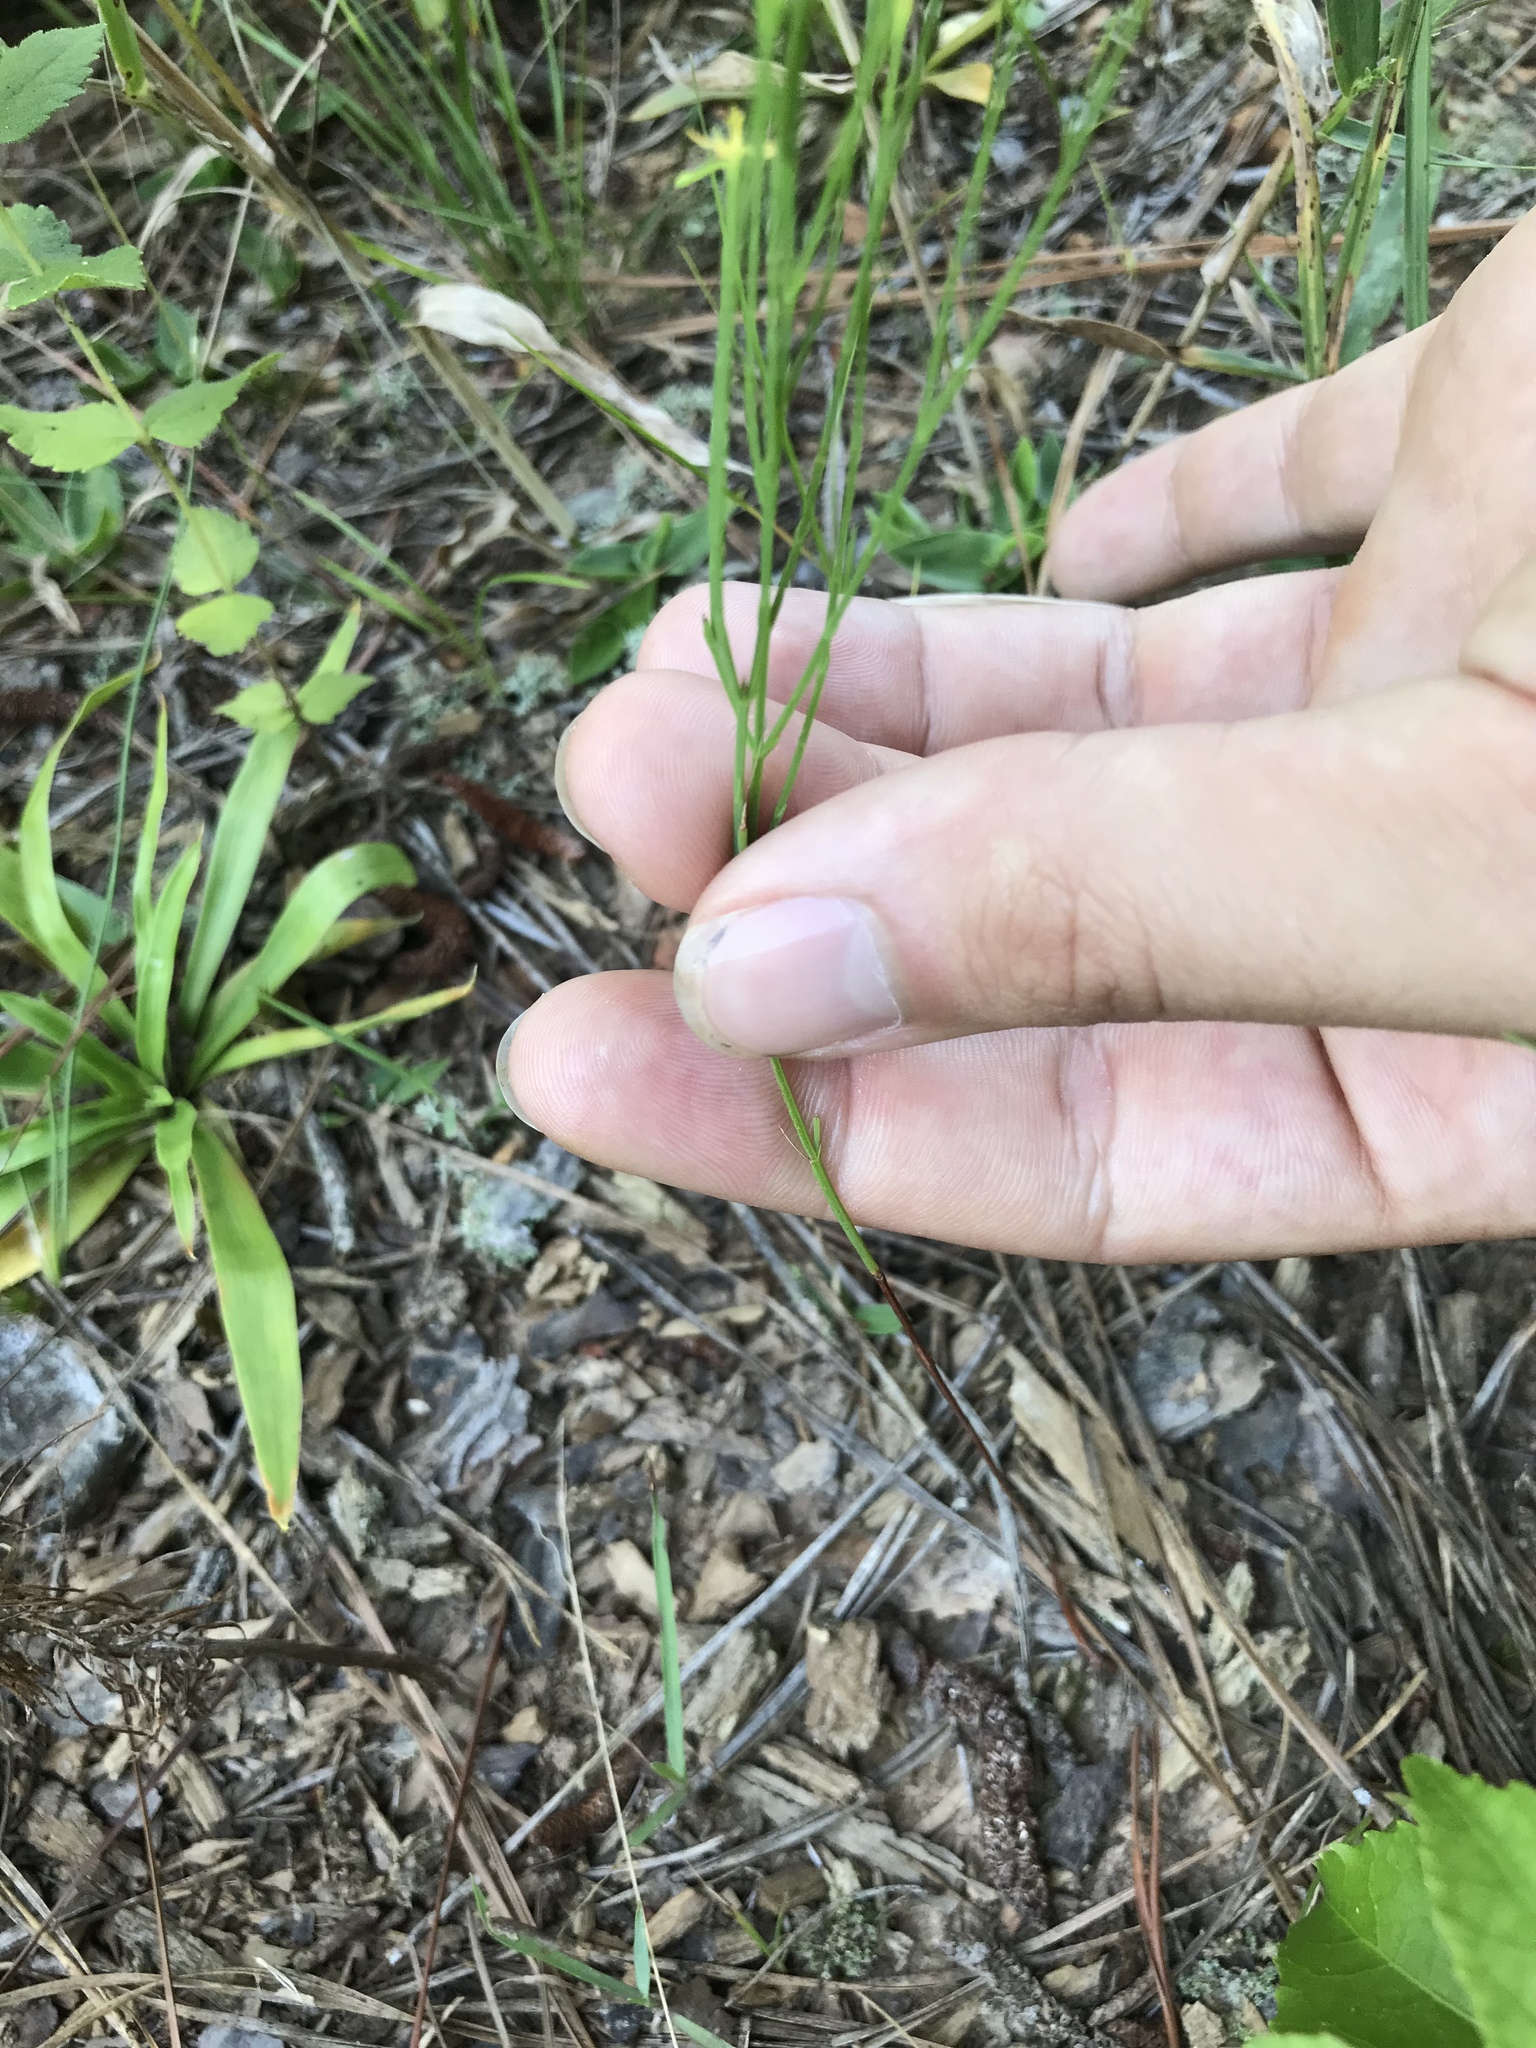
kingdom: Plantae
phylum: Tracheophyta
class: Magnoliopsida
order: Malpighiales
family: Hypericaceae
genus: Hypericum
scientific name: Hypericum gentianoides
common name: Gentian-leaved st. john's-wort
